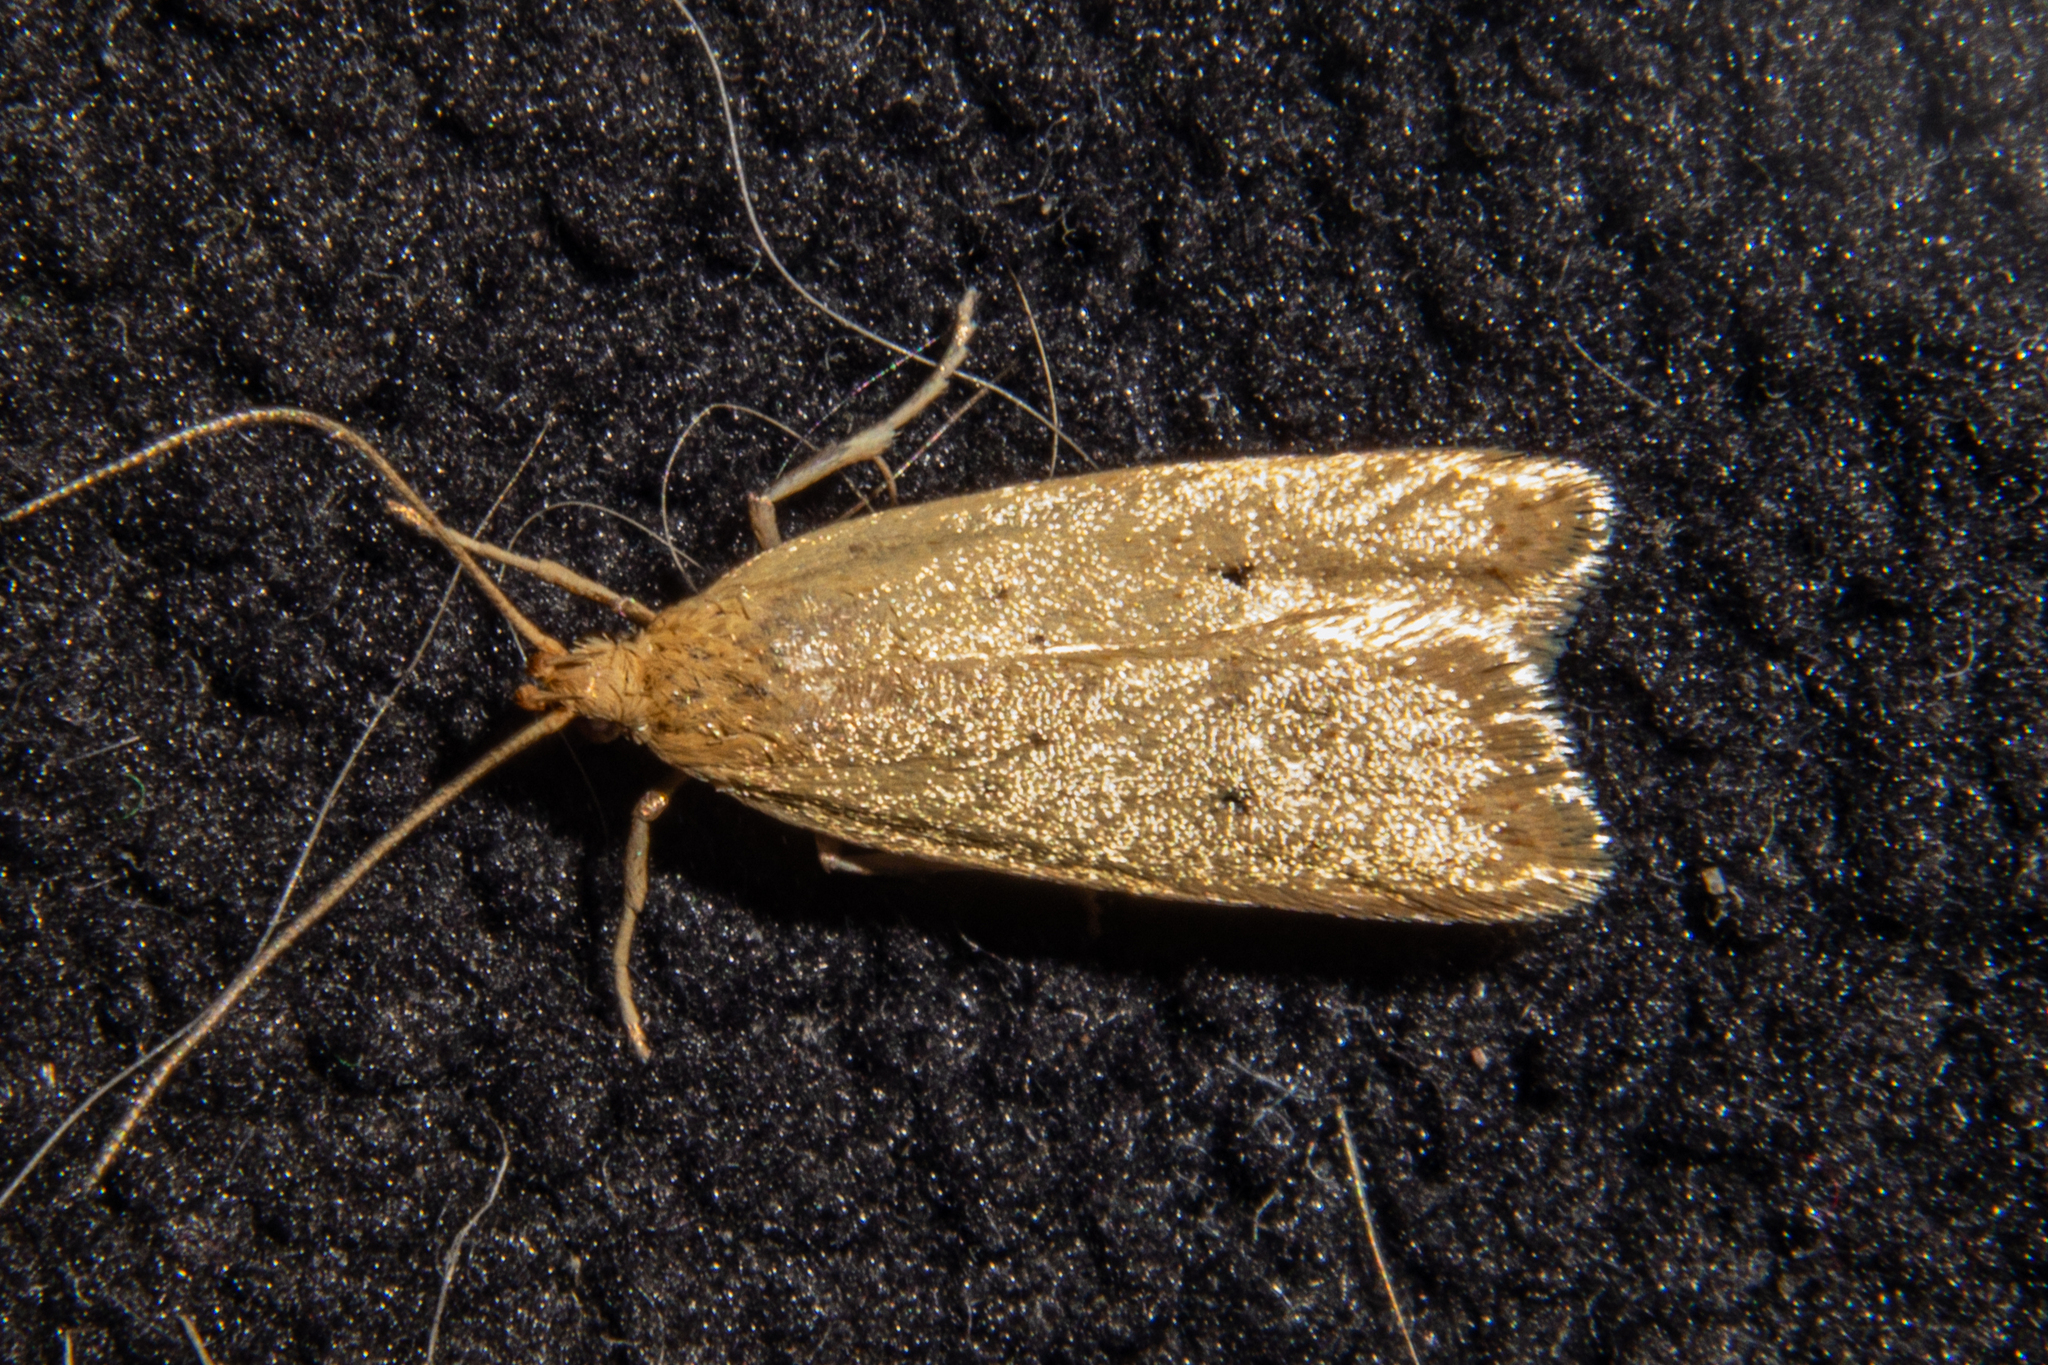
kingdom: Animalia
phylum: Arthropoda
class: Insecta
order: Lepidoptera
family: Oecophoridae
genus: Gymnobathra
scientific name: Gymnobathra sarcoxantha
